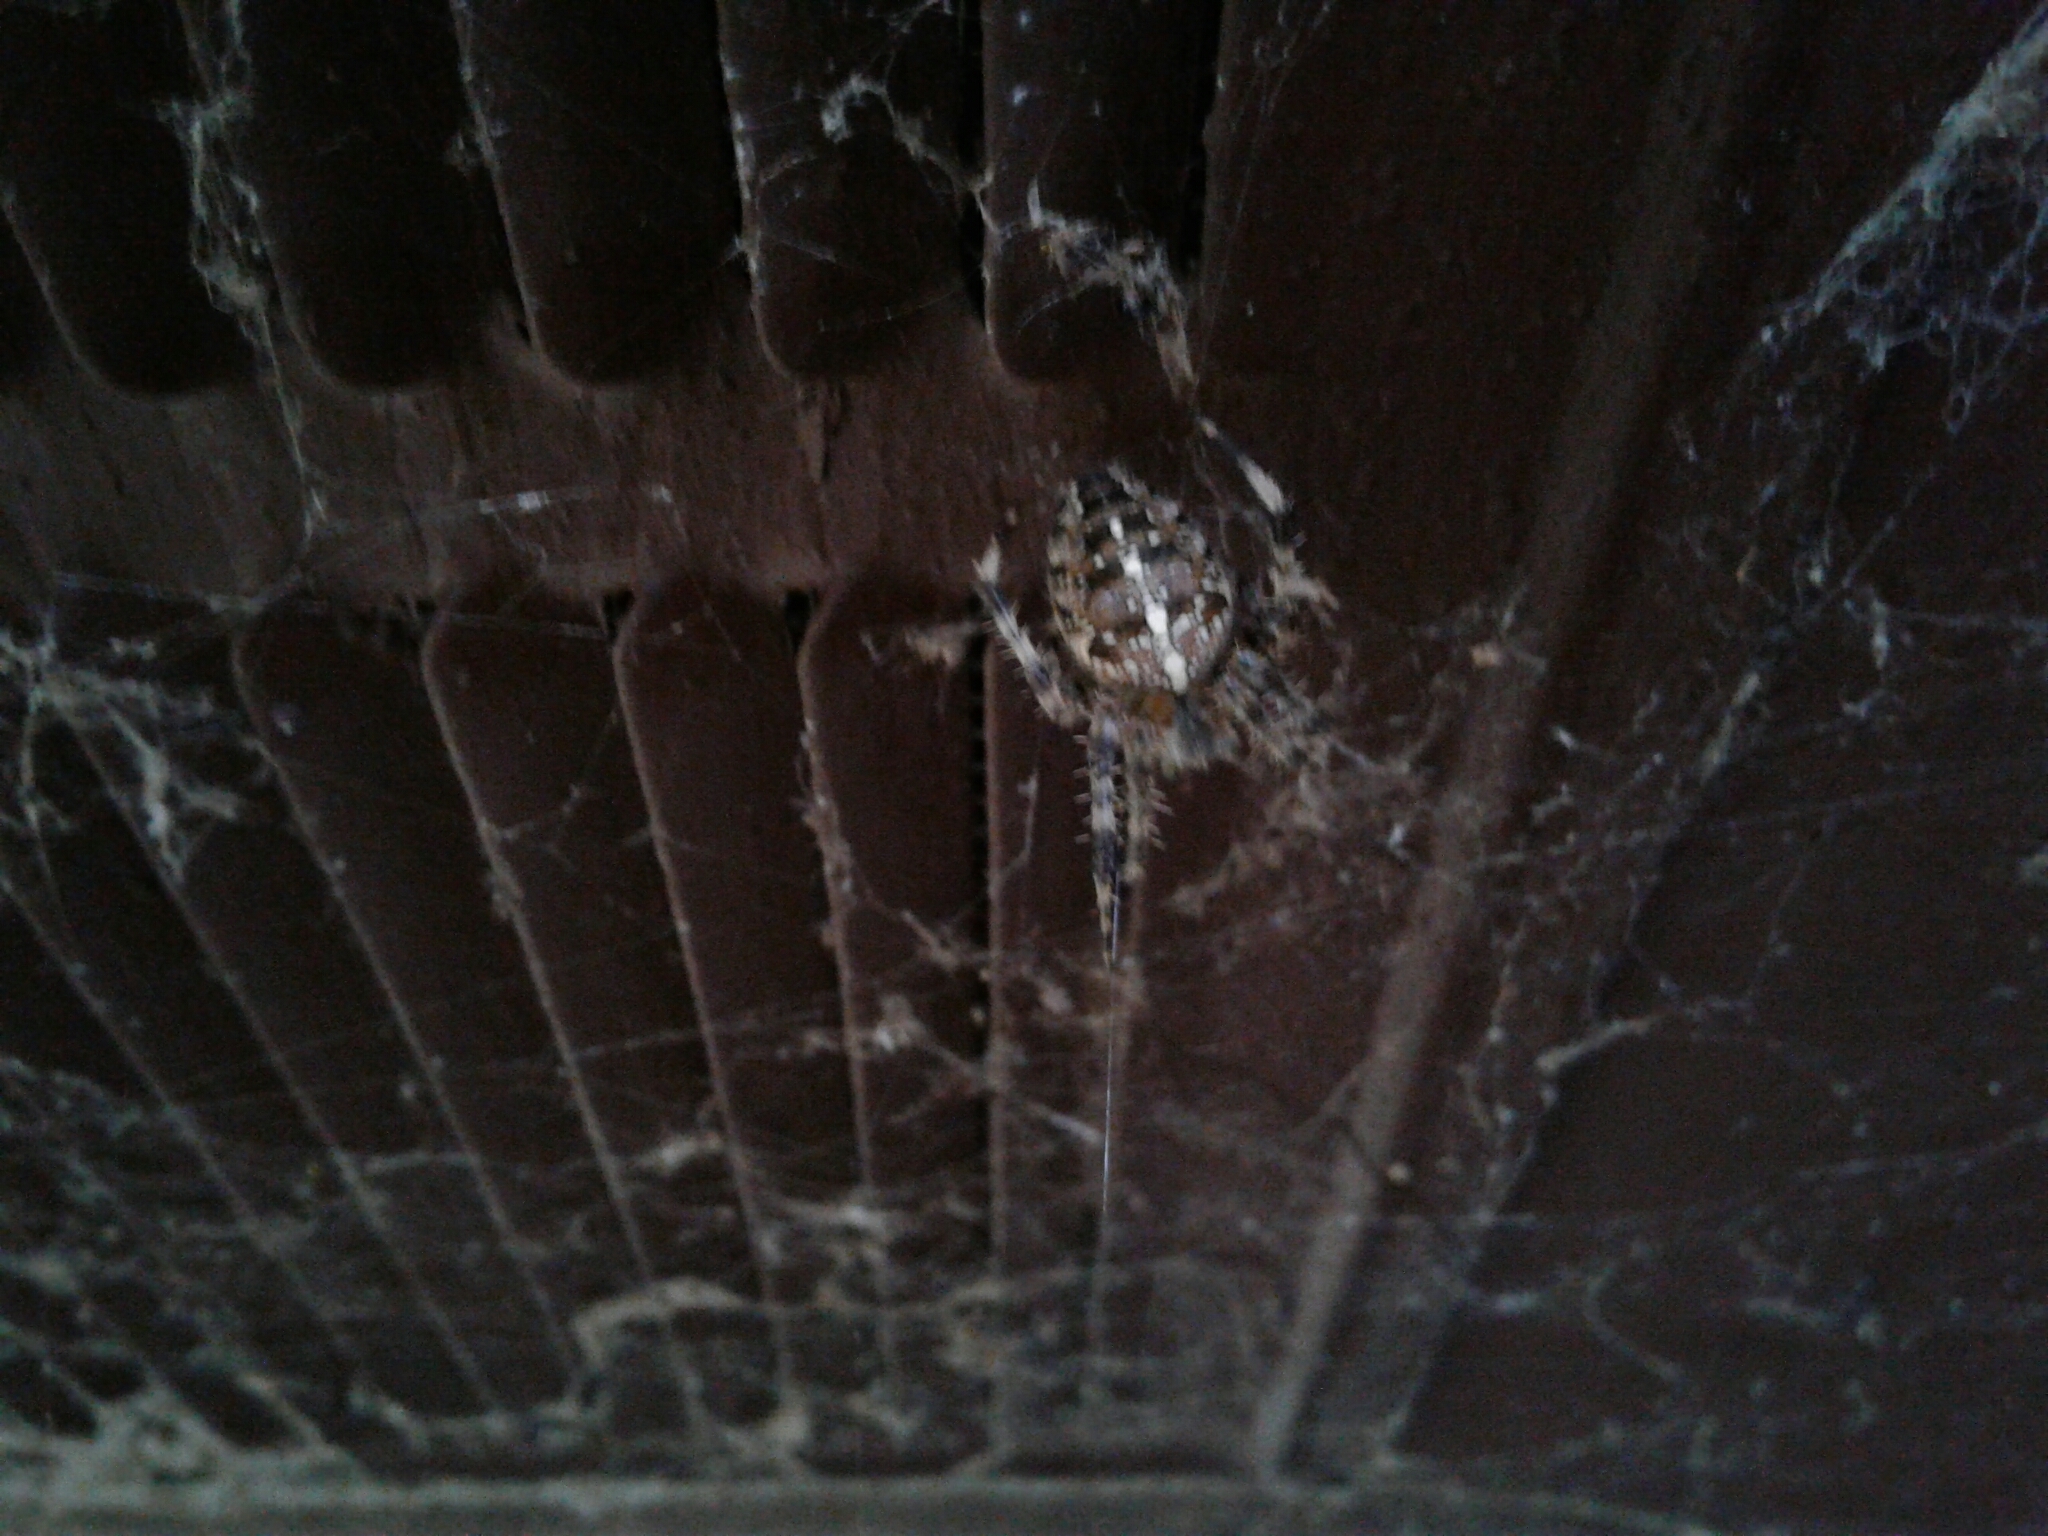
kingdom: Animalia
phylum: Arthropoda
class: Arachnida
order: Araneae
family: Araneidae
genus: Araneus
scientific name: Araneus diadematus
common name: Cross orbweaver
